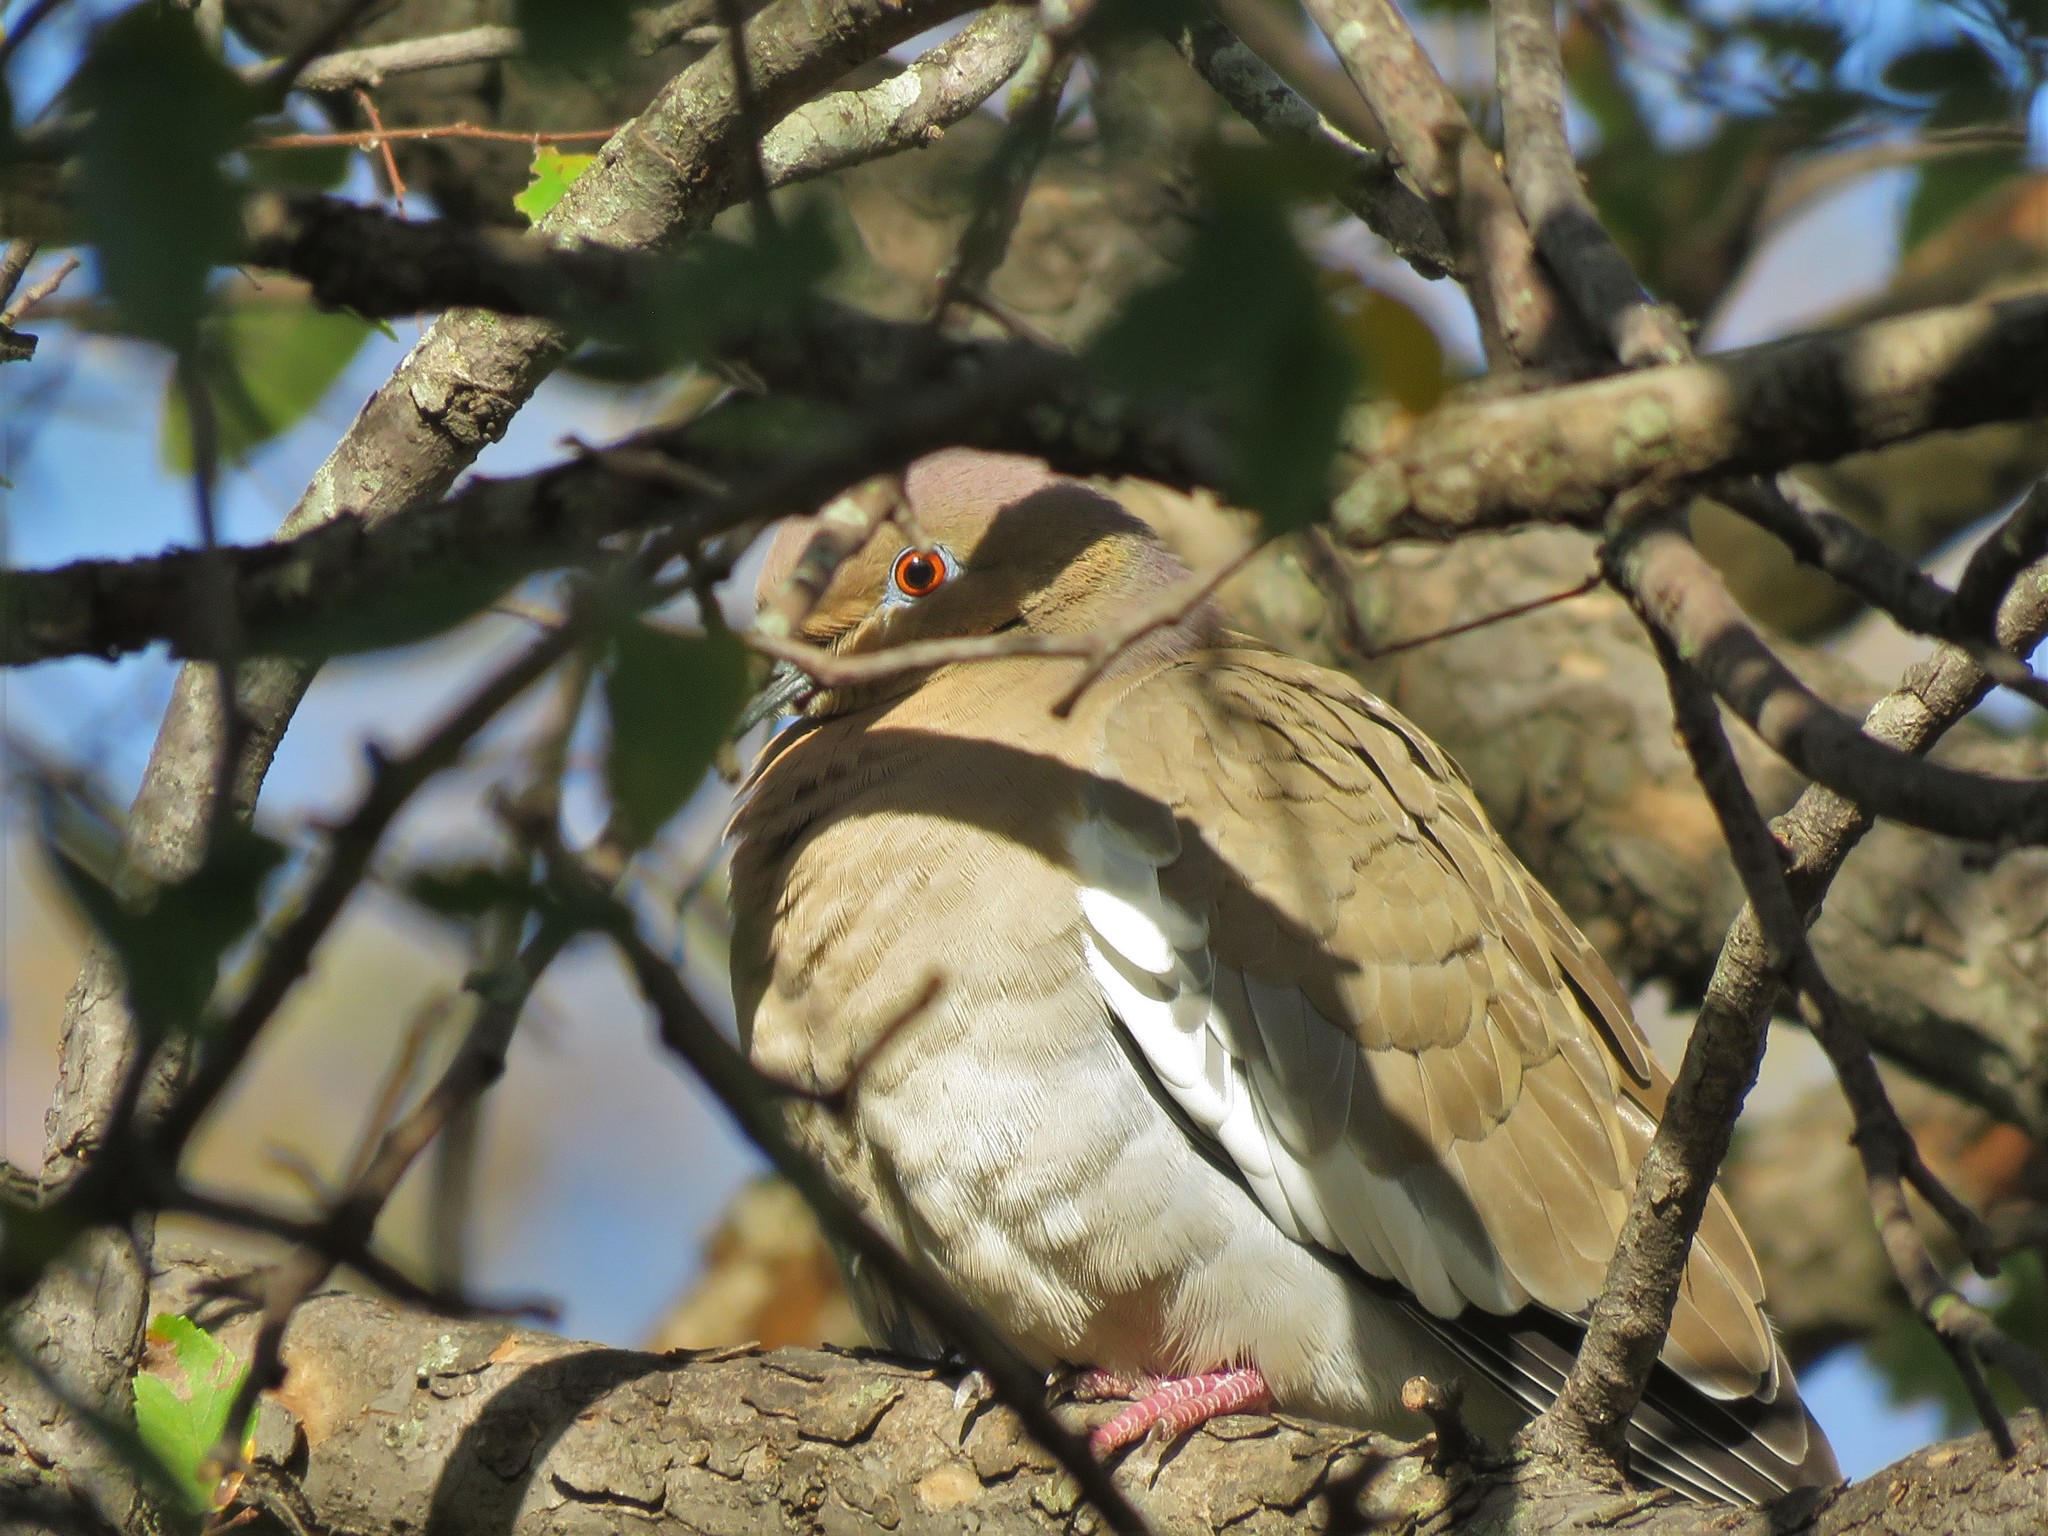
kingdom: Animalia
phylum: Chordata
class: Aves
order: Columbiformes
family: Columbidae
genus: Zenaida
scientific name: Zenaida asiatica
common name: White-winged dove
